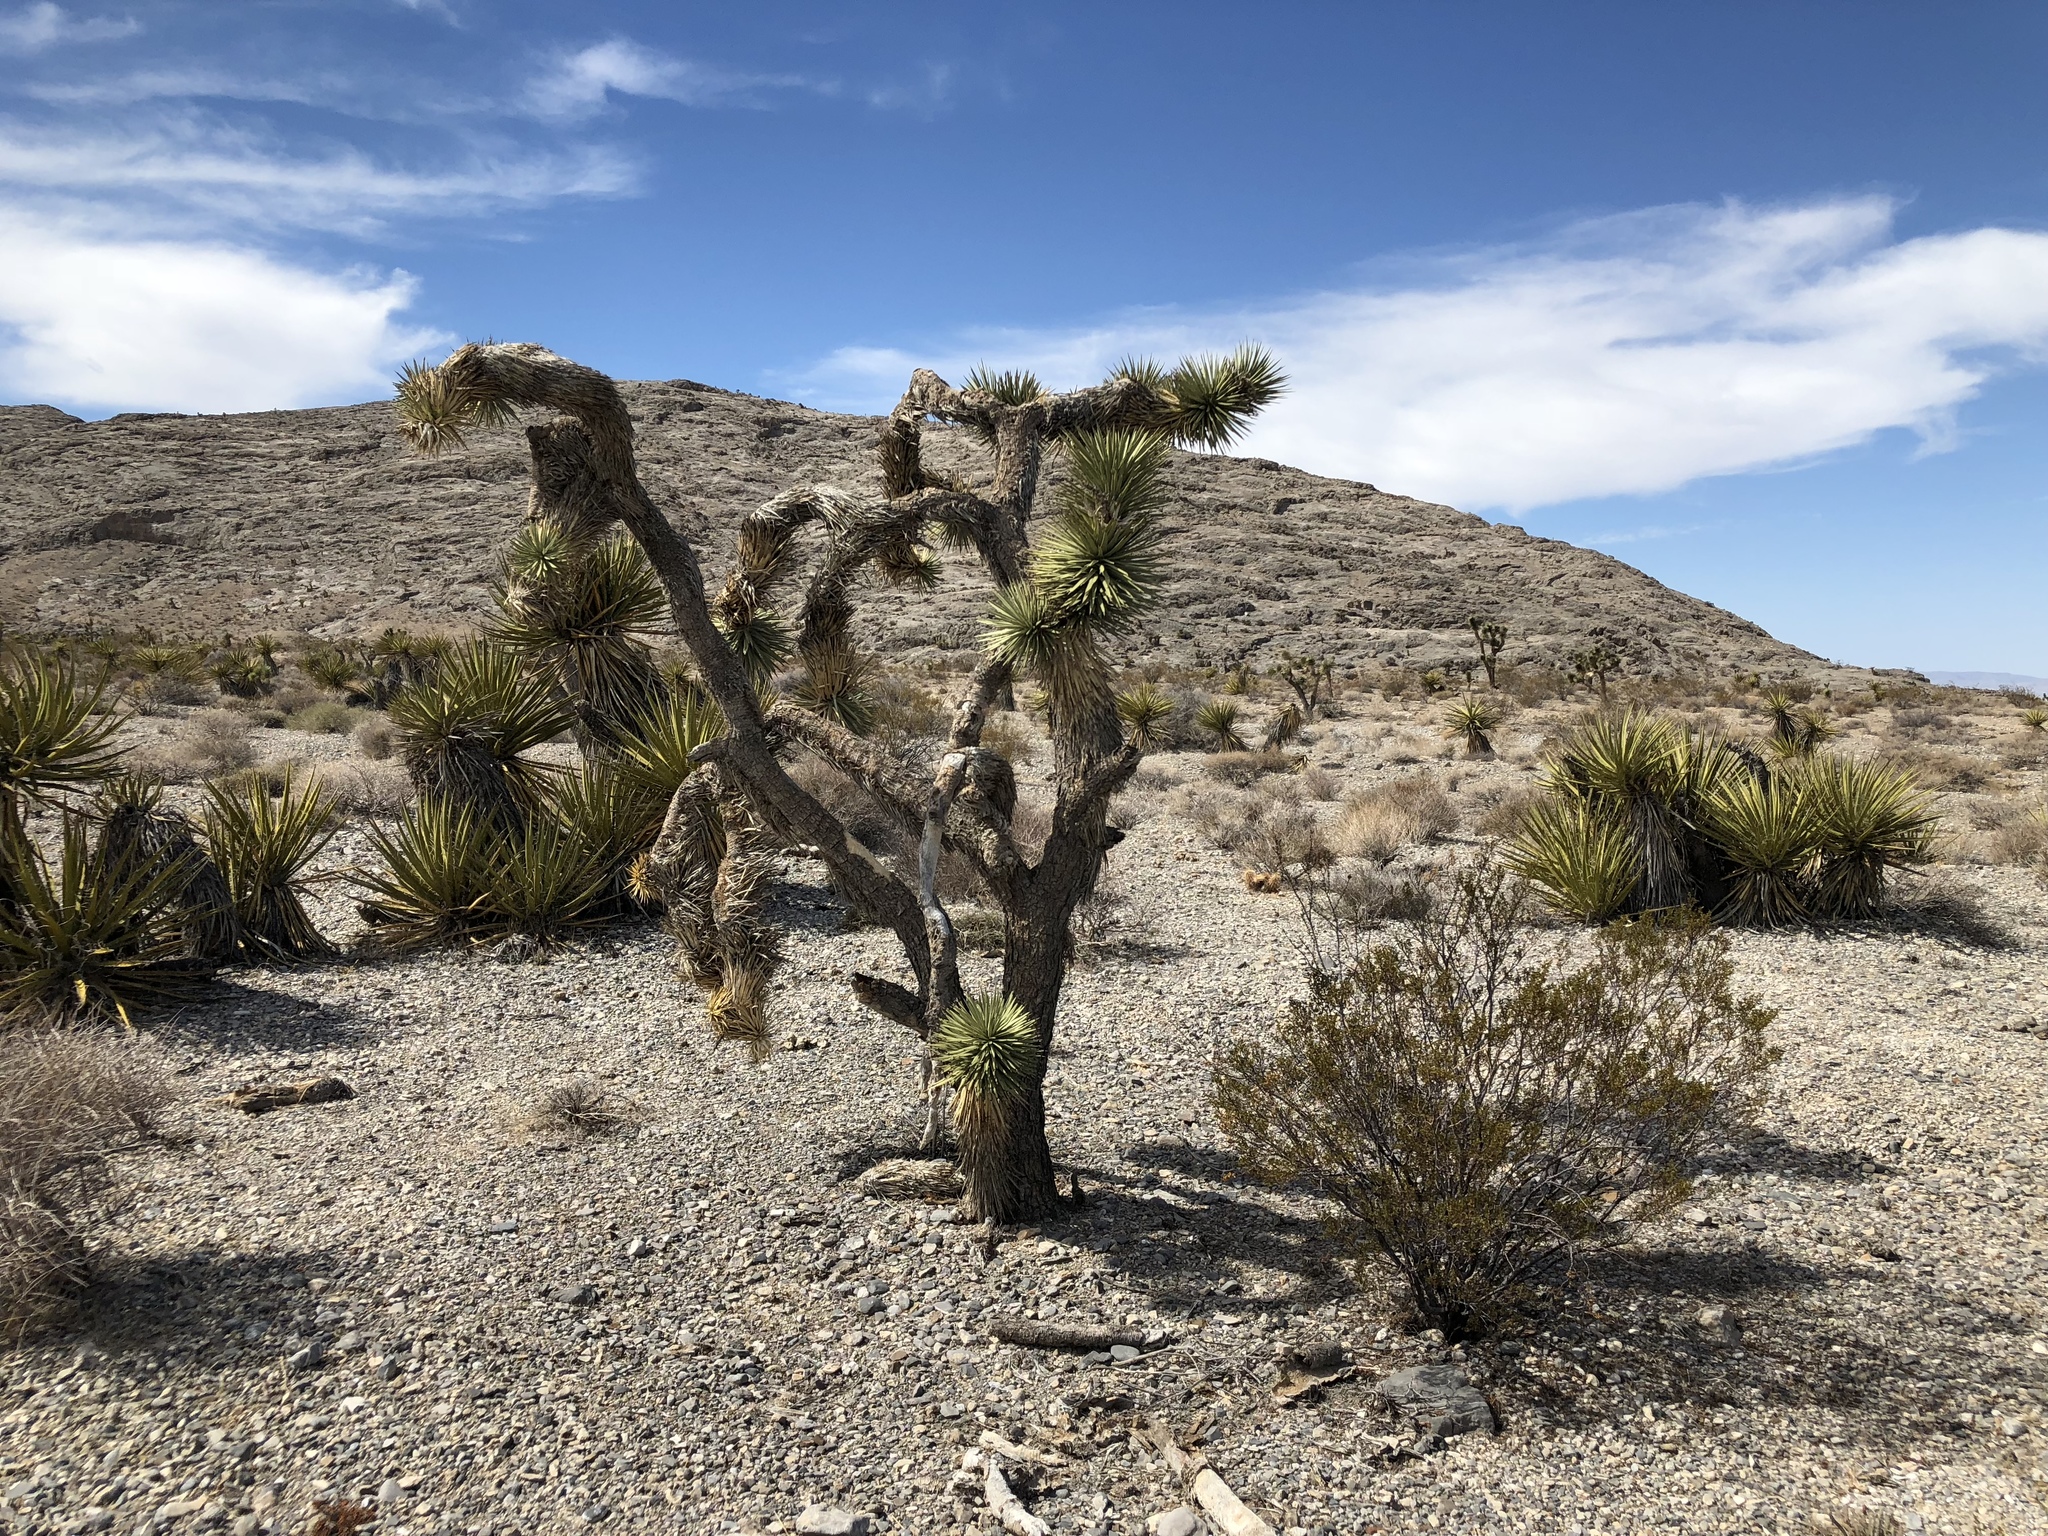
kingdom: Plantae
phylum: Tracheophyta
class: Liliopsida
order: Asparagales
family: Asparagaceae
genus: Yucca
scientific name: Yucca brevifolia
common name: Joshua tree
